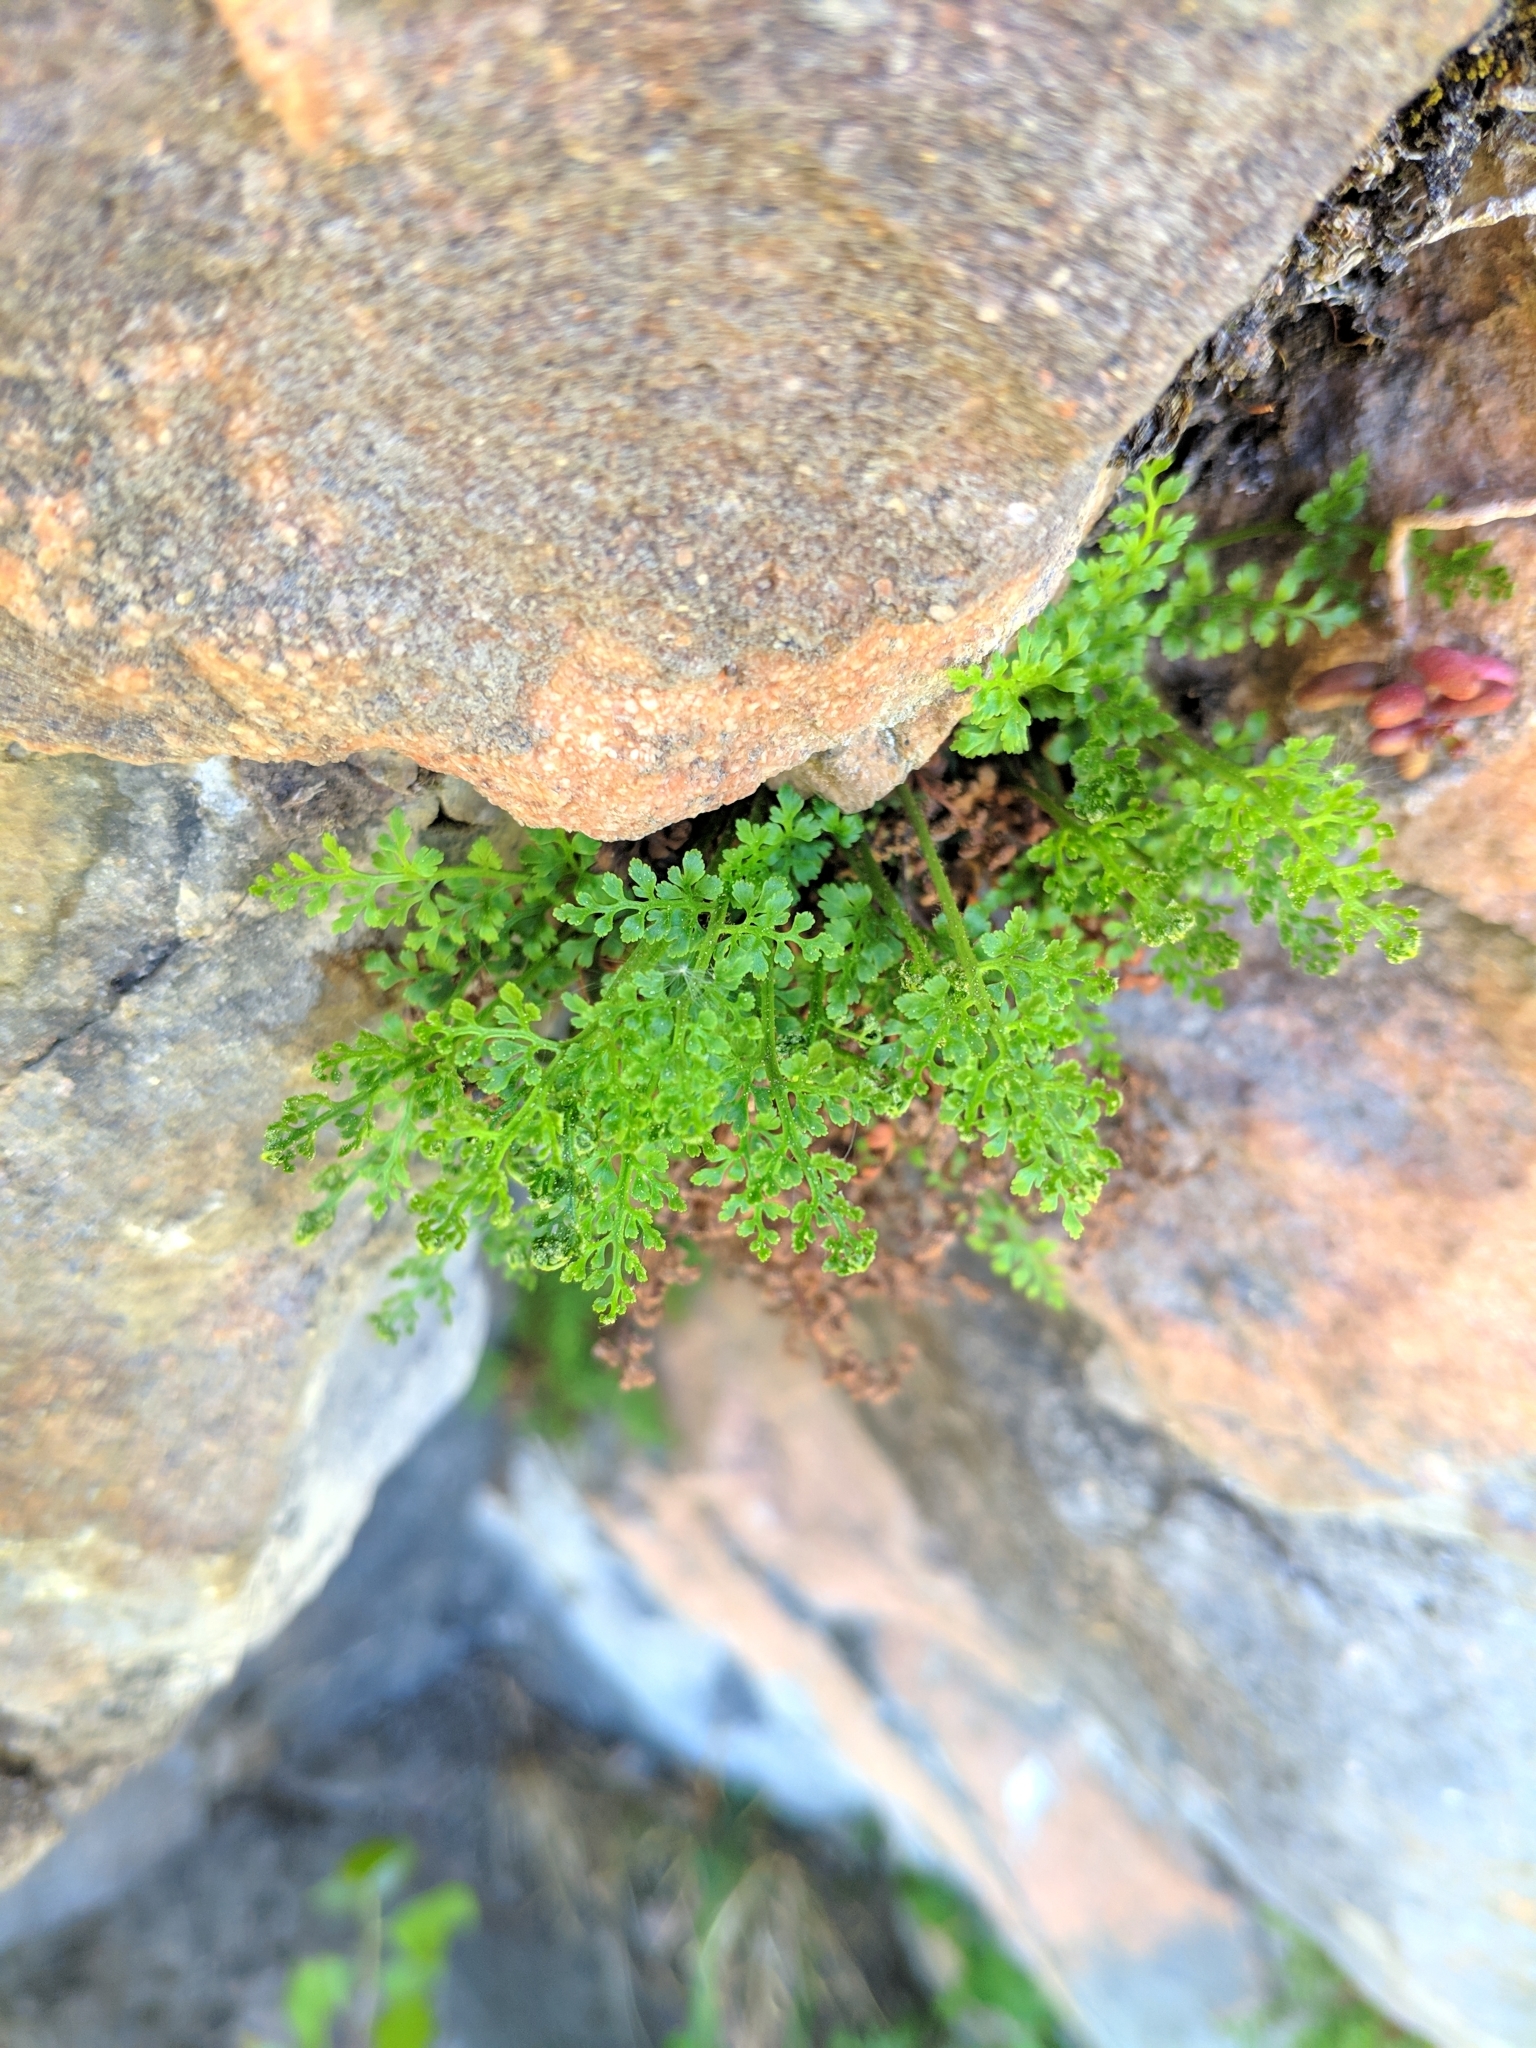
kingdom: Plantae
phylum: Tracheophyta
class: Polypodiopsida
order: Polypodiales
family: Aspleniaceae
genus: Asplenium
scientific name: Asplenium ruta-muraria
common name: Wall-rue
